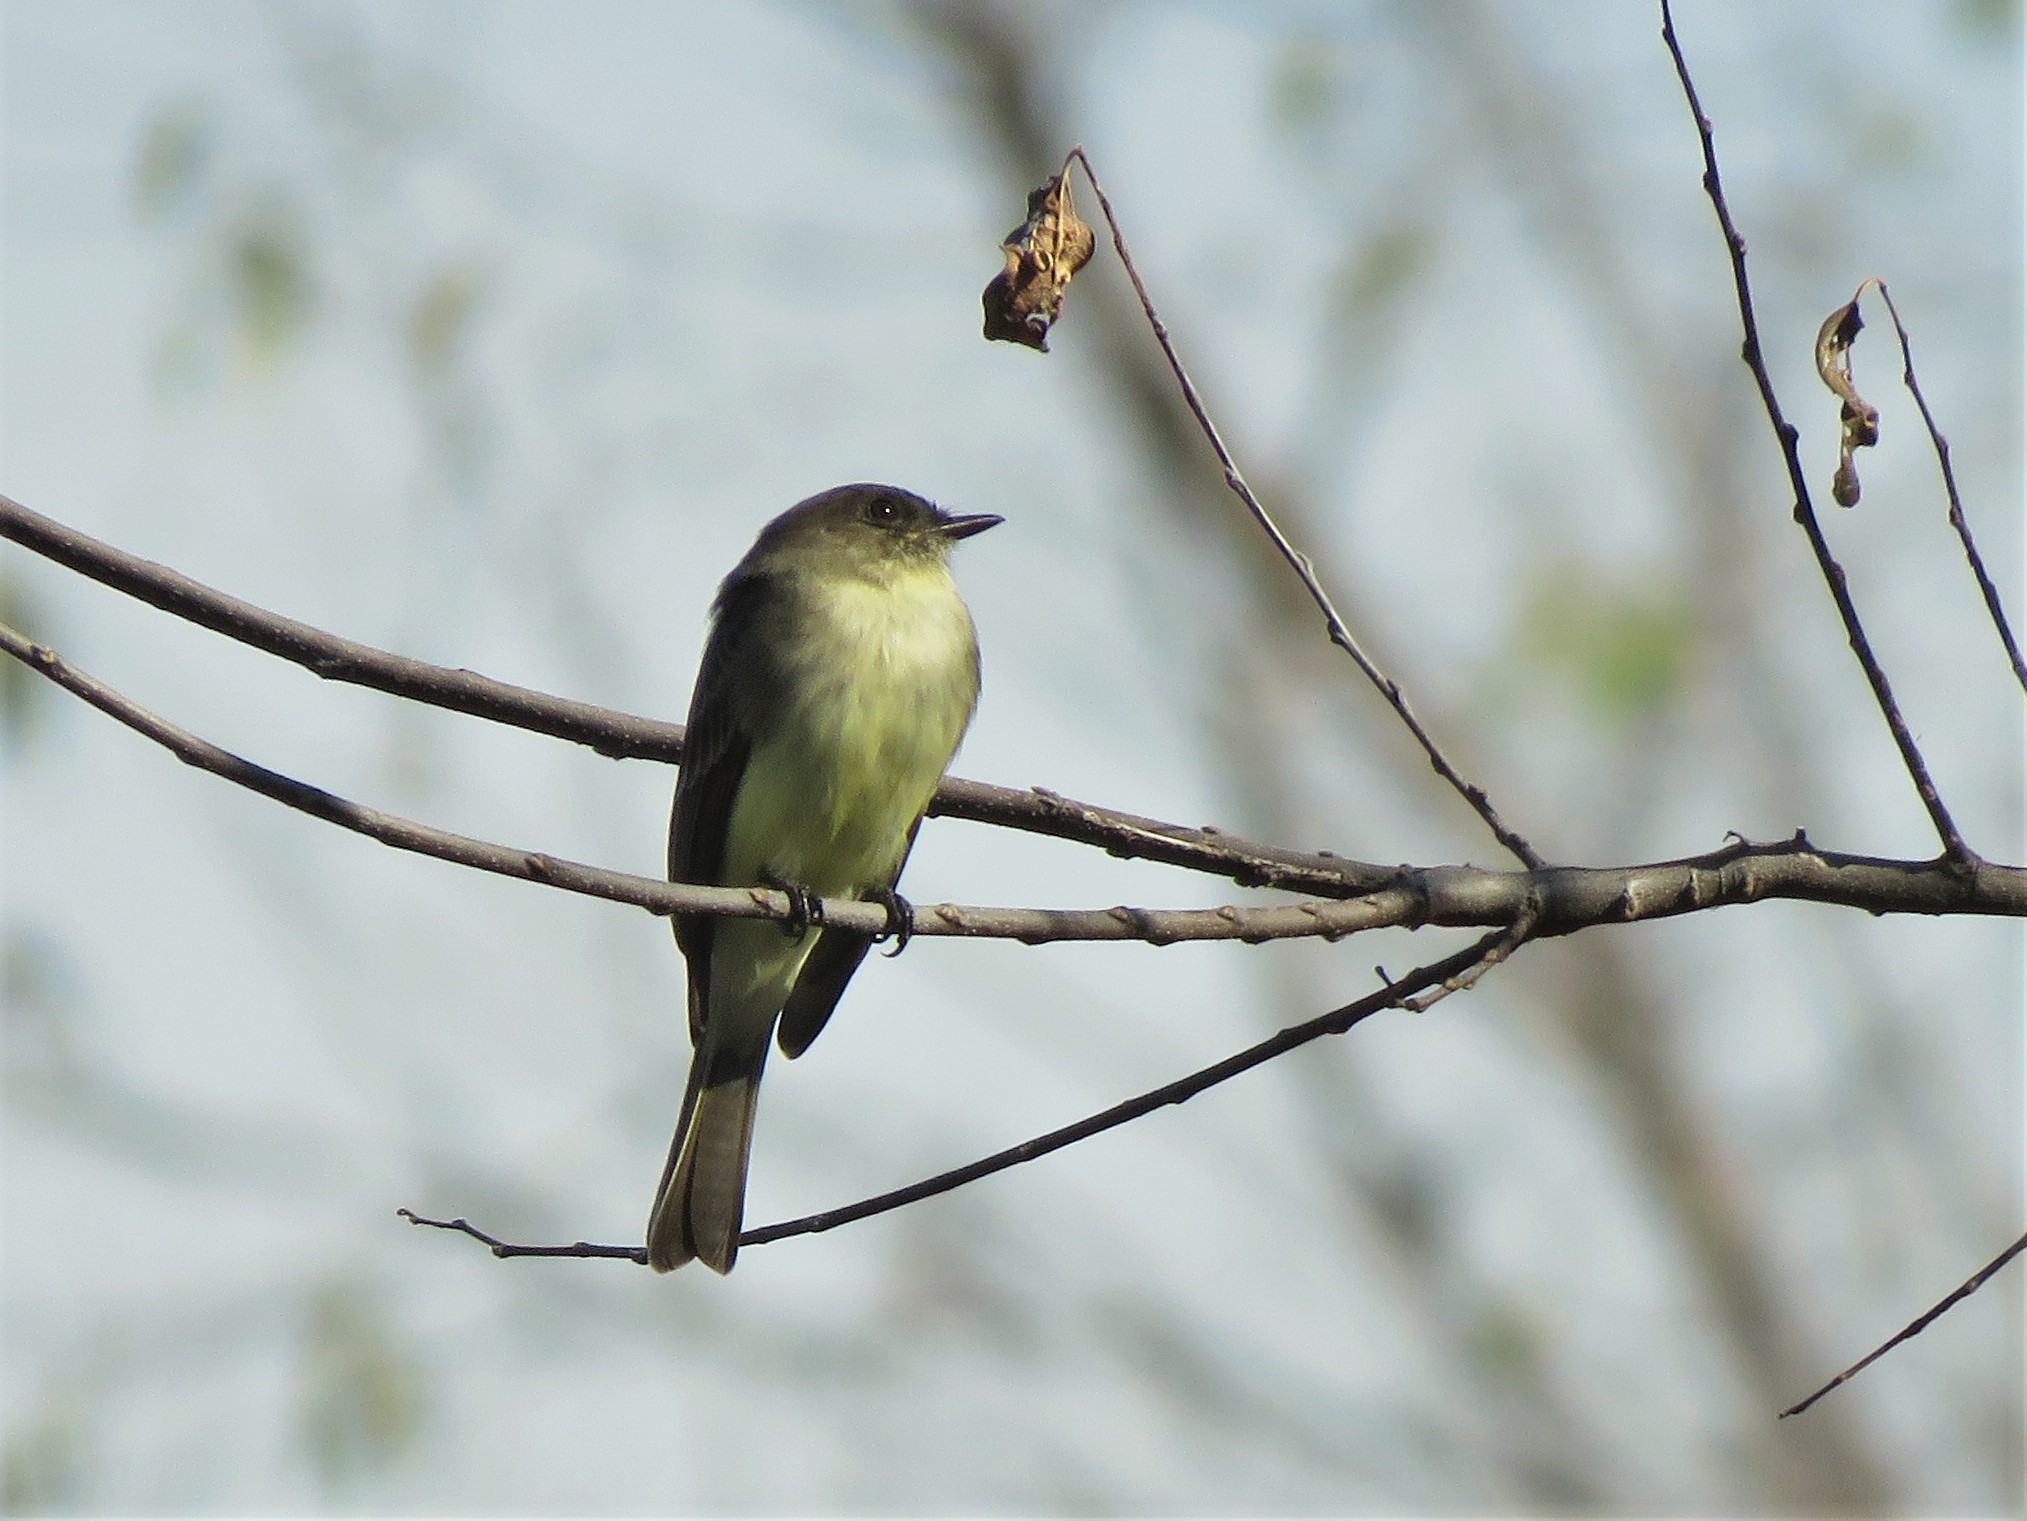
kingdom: Animalia
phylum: Chordata
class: Aves
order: Passeriformes
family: Tyrannidae
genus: Sayornis
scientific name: Sayornis phoebe
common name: Eastern phoebe
